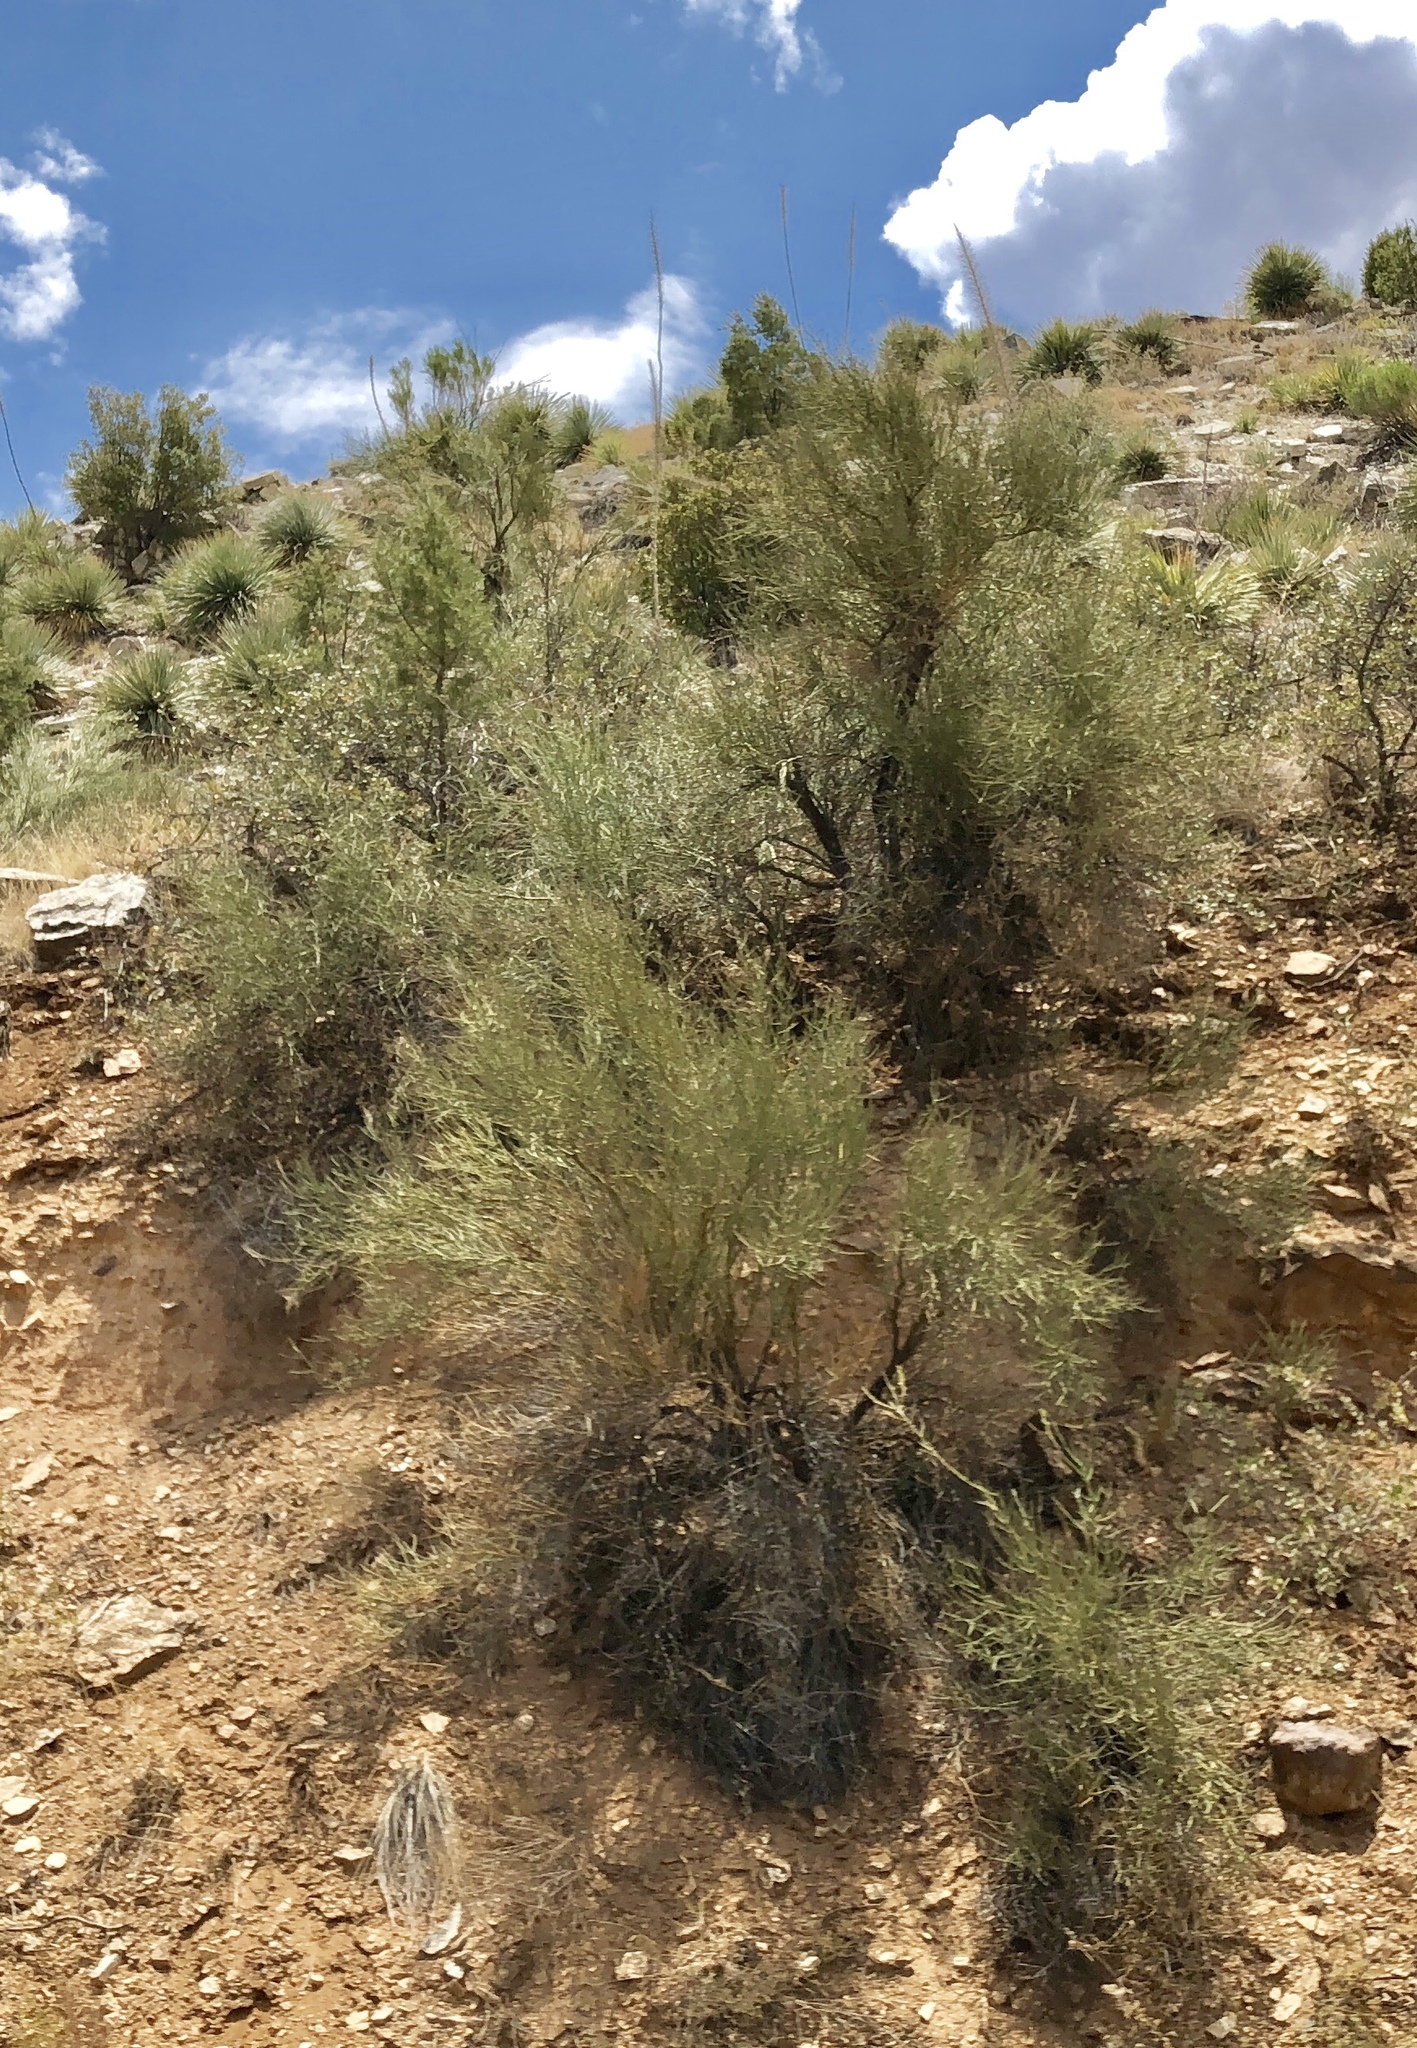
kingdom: Plantae
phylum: Tracheophyta
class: Magnoliopsida
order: Celastrales
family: Celastraceae
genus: Canotia
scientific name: Canotia holacantha
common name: Crucifixion thorns
